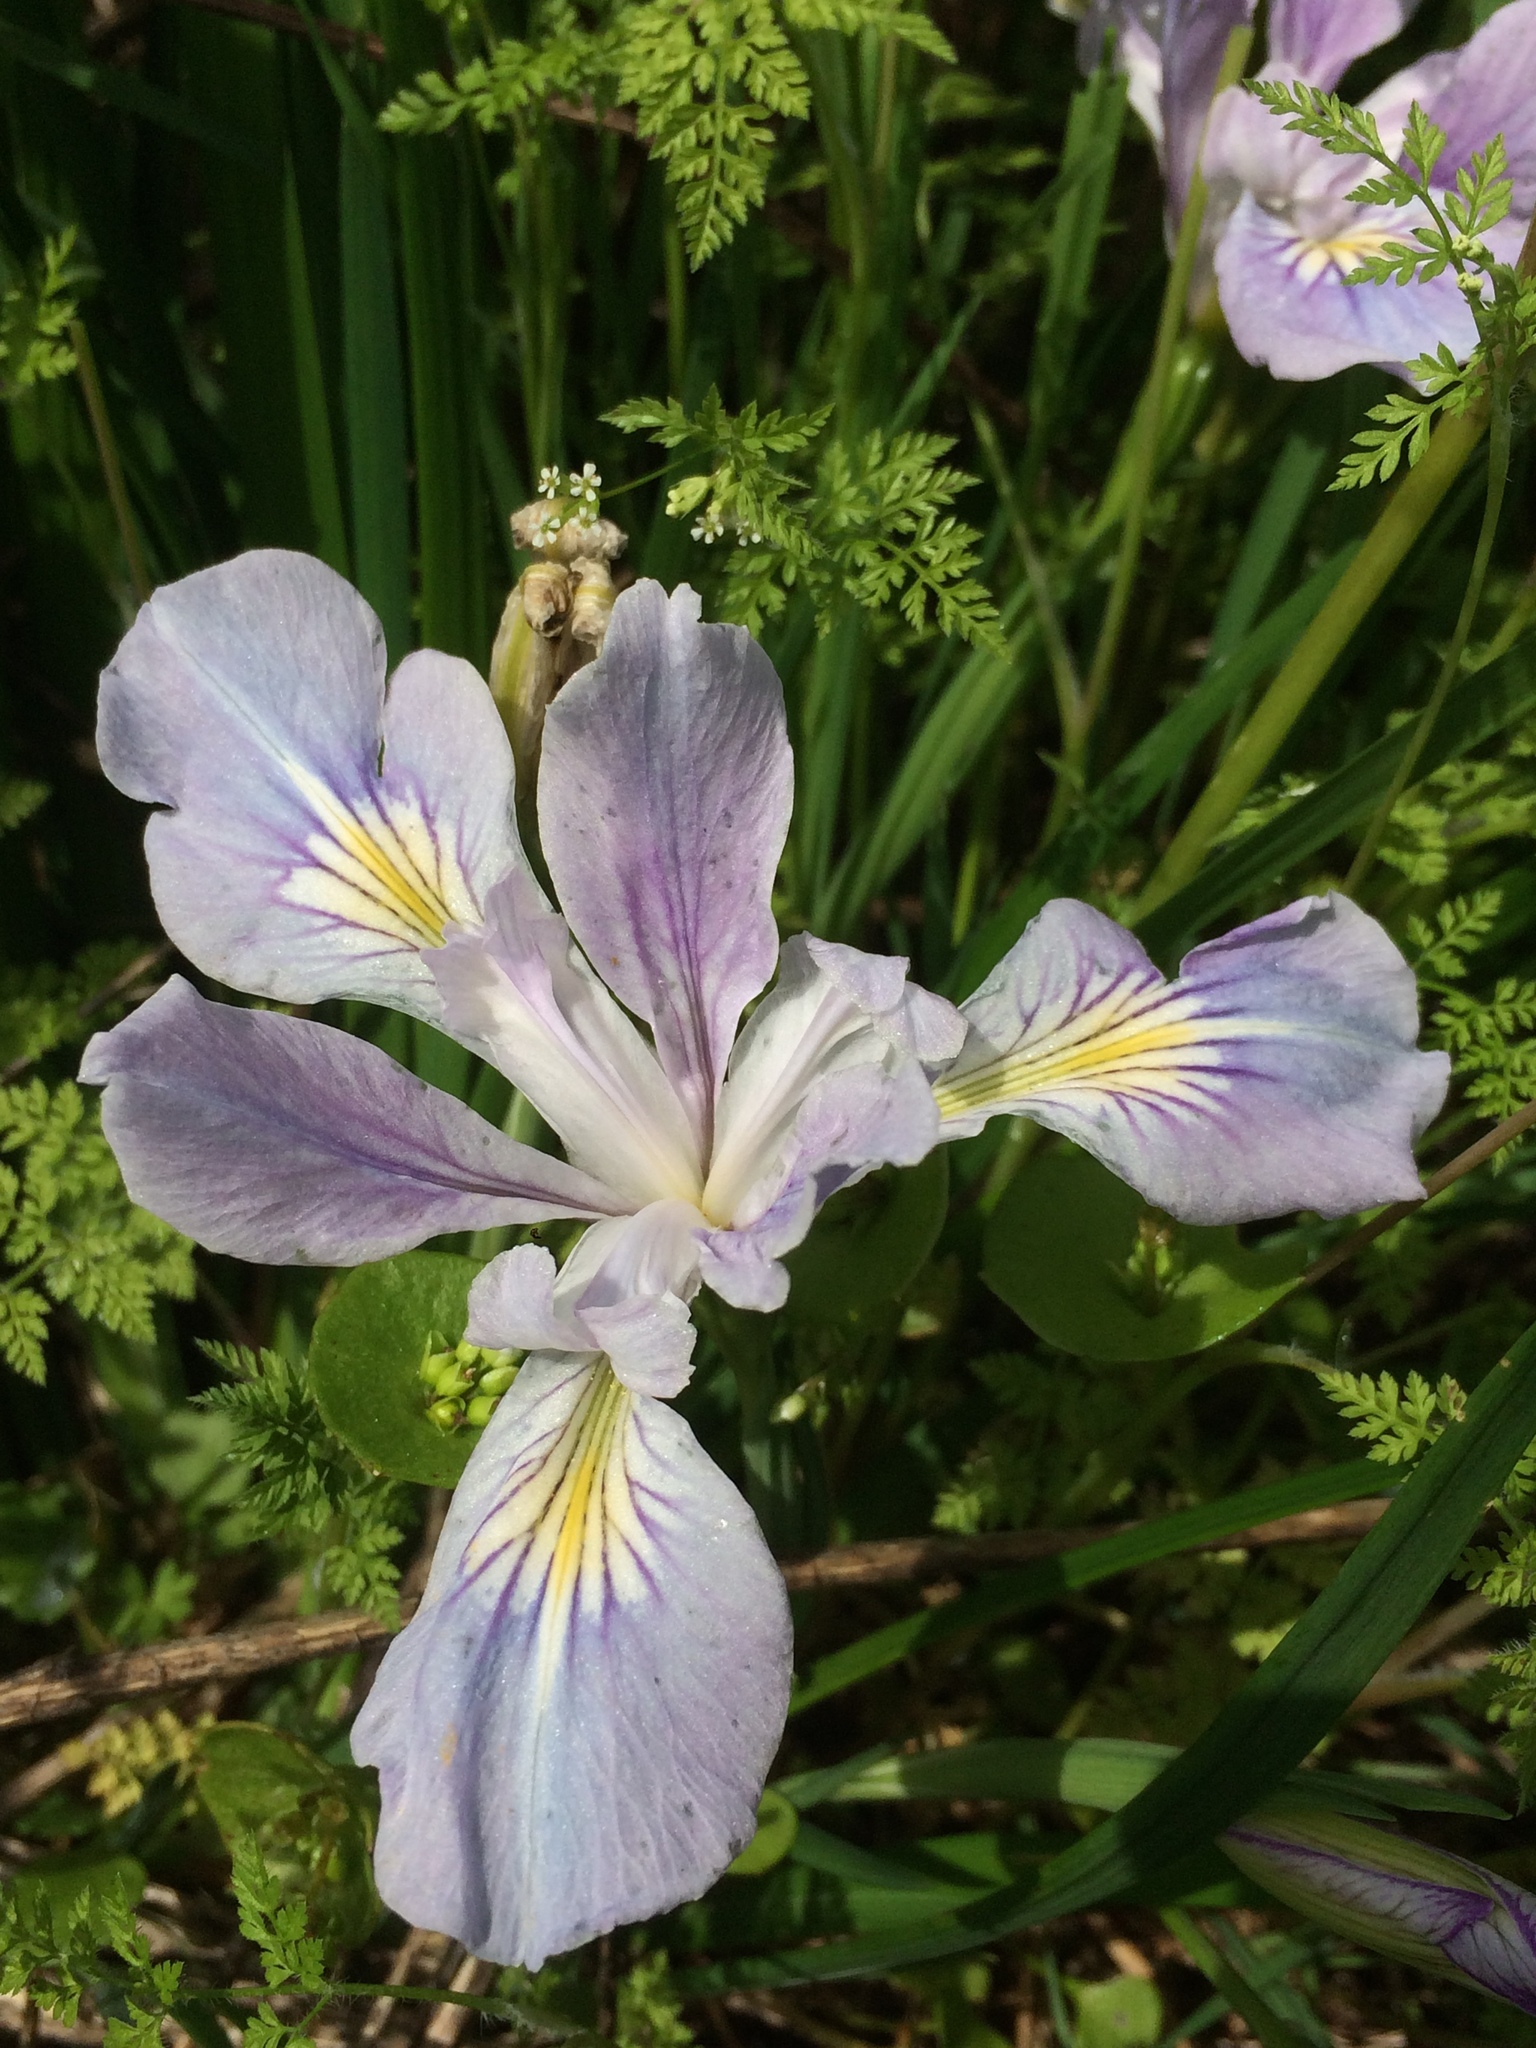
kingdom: Plantae
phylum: Tracheophyta
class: Liliopsida
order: Asparagales
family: Iridaceae
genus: Iris
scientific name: Iris tenax
